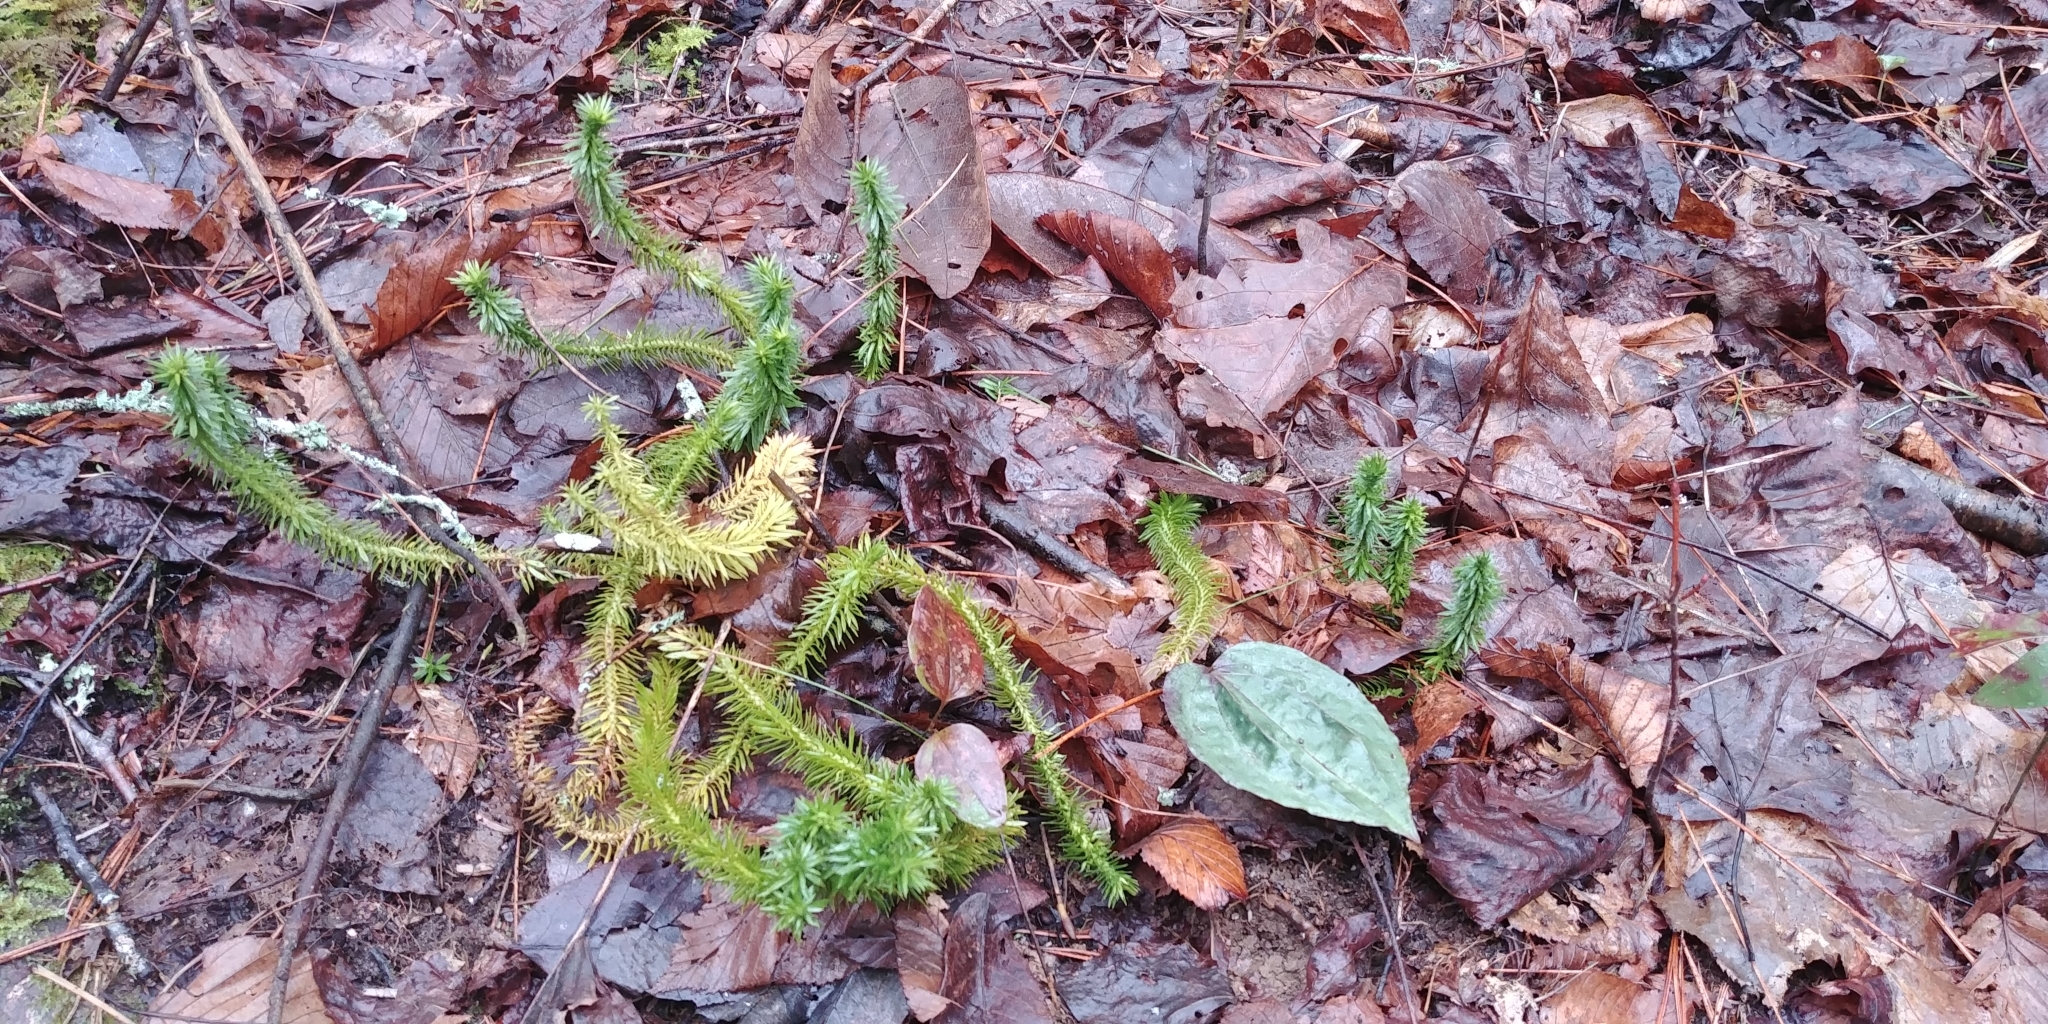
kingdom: Plantae
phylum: Tracheophyta
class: Lycopodiopsida
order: Lycopodiales
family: Lycopodiaceae
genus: Huperzia
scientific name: Huperzia lucidula
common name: Shining clubmoss
